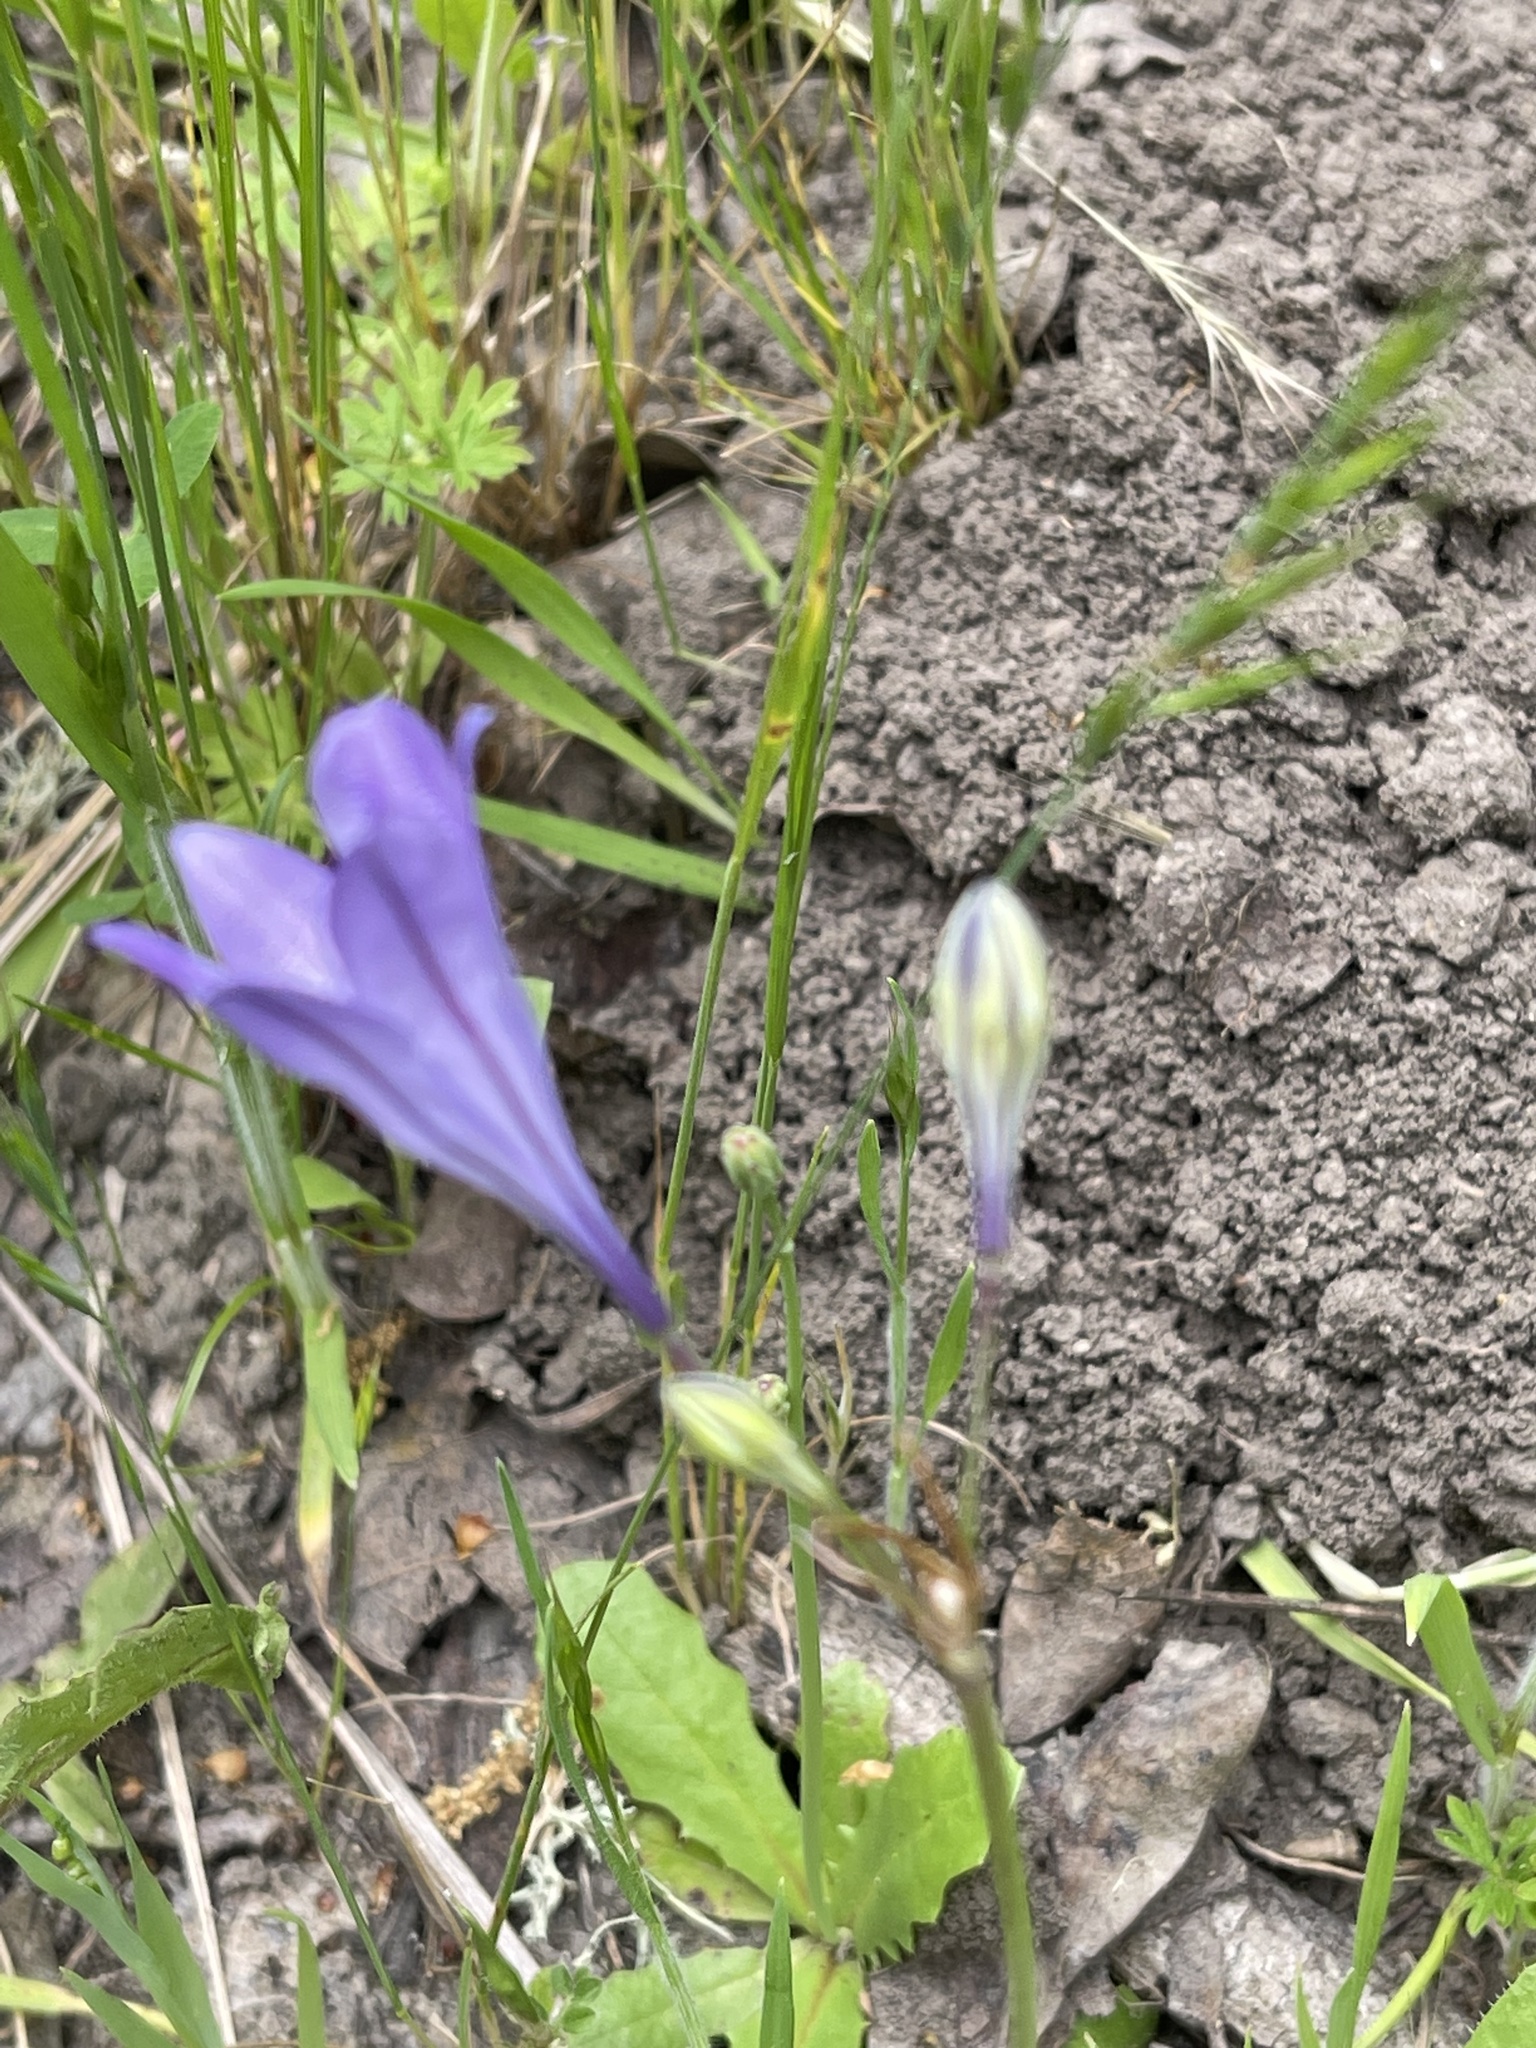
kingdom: Plantae
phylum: Tracheophyta
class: Liliopsida
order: Asparagales
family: Asparagaceae
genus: Triteleia
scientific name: Triteleia laxa
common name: Triplet-lily
